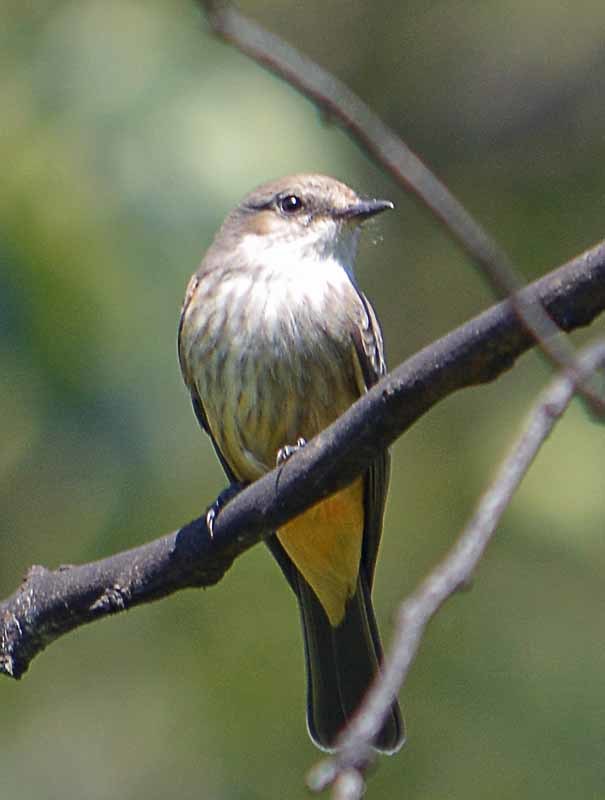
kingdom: Animalia
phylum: Chordata
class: Aves
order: Passeriformes
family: Tyrannidae
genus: Pyrocephalus
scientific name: Pyrocephalus rubinus
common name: Vermilion flycatcher
